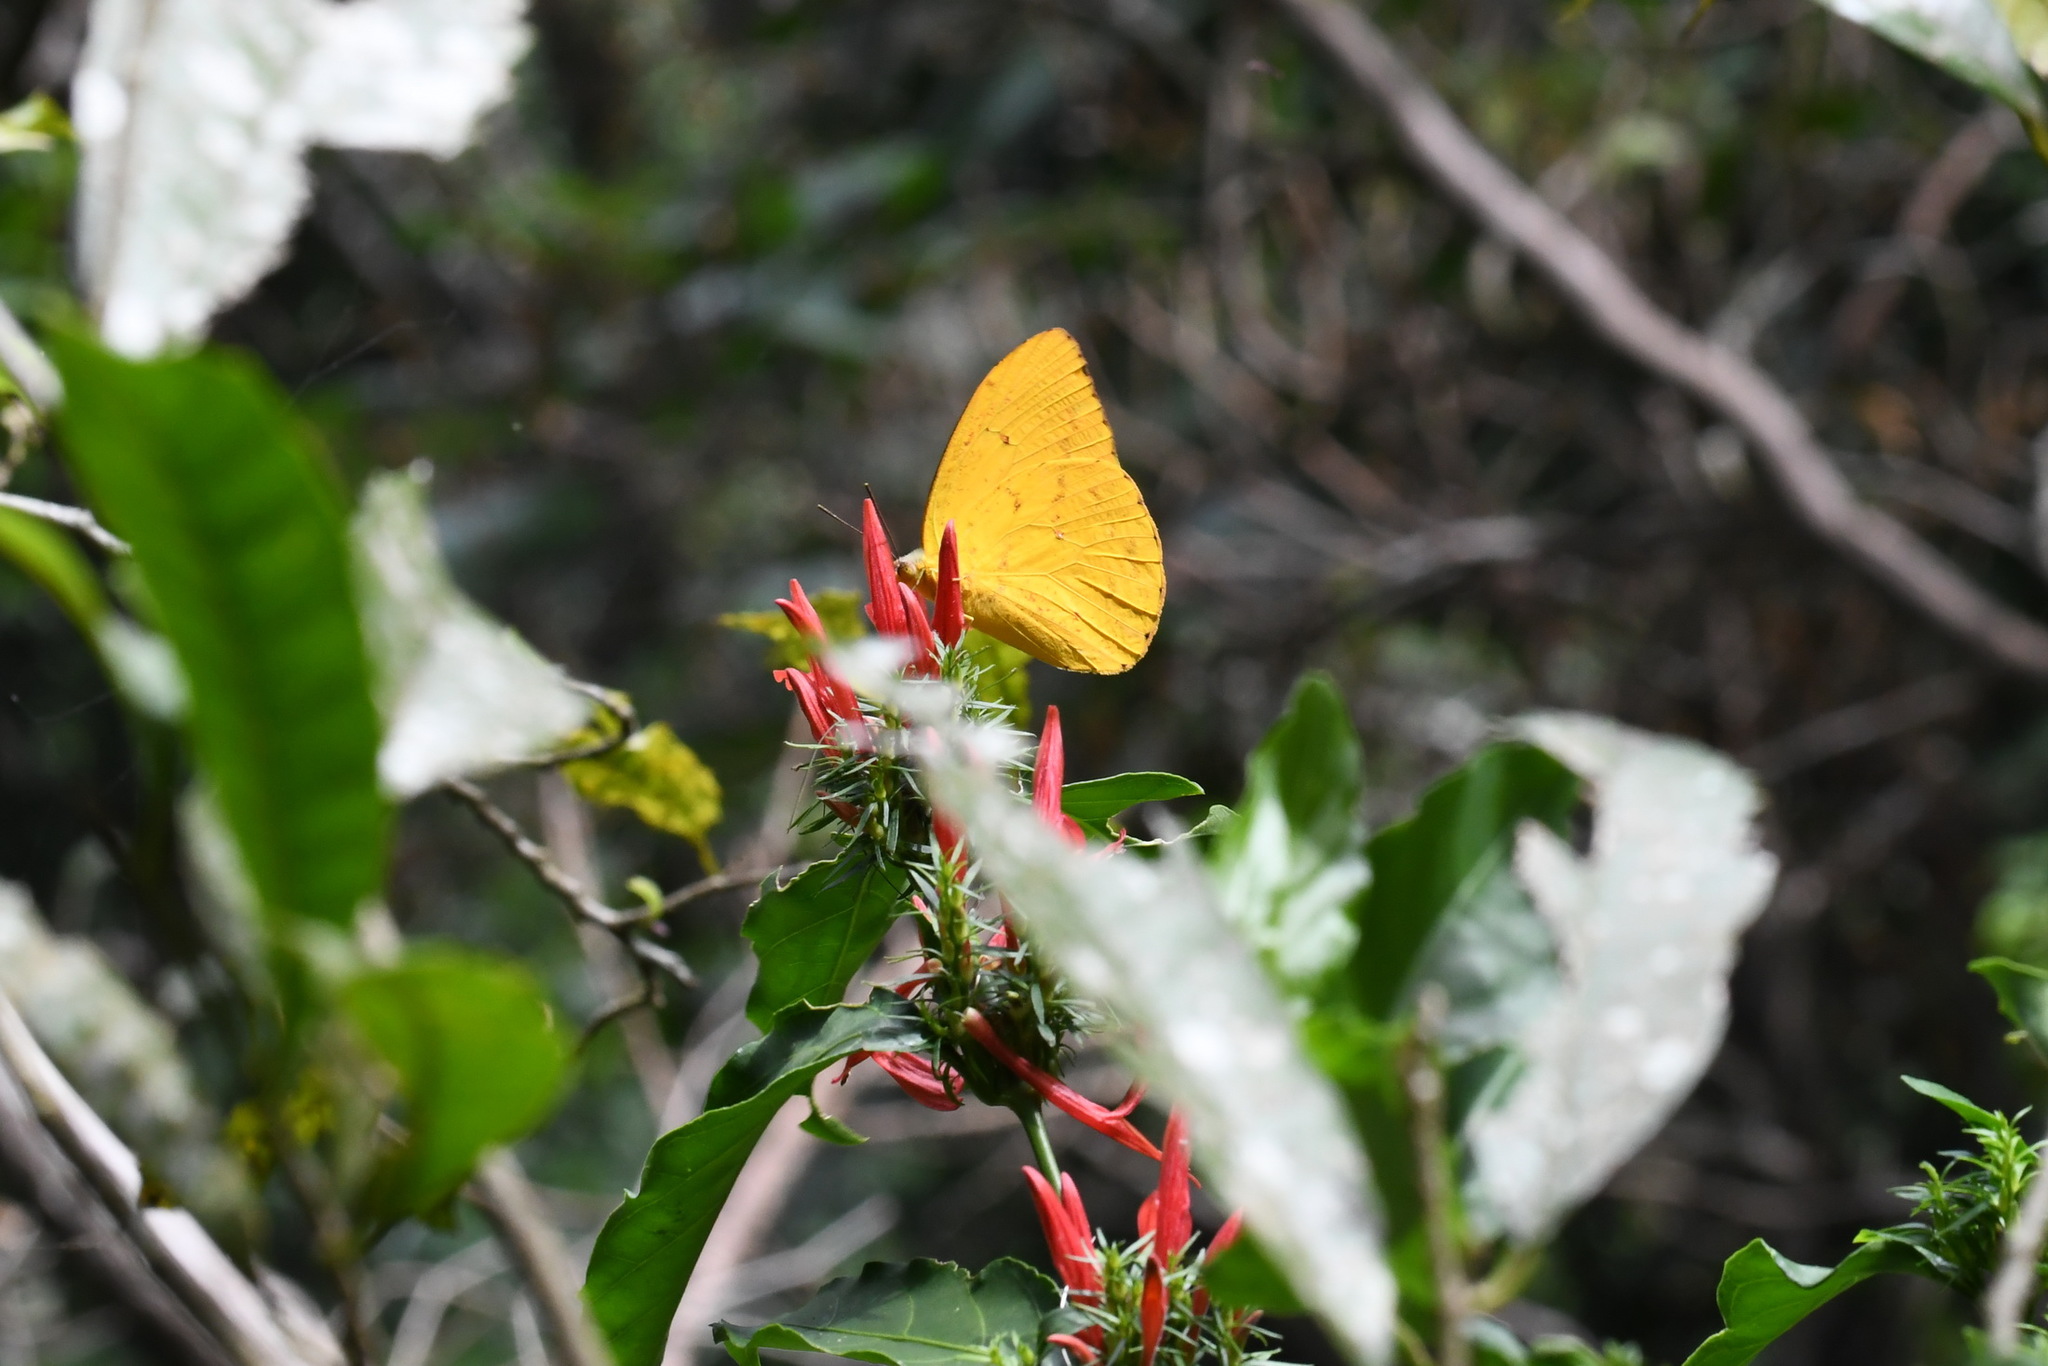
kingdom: Animalia
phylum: Arthropoda
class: Insecta
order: Lepidoptera
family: Pieridae
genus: Phoebis
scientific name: Phoebis agarithe
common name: Large orange sulphur
